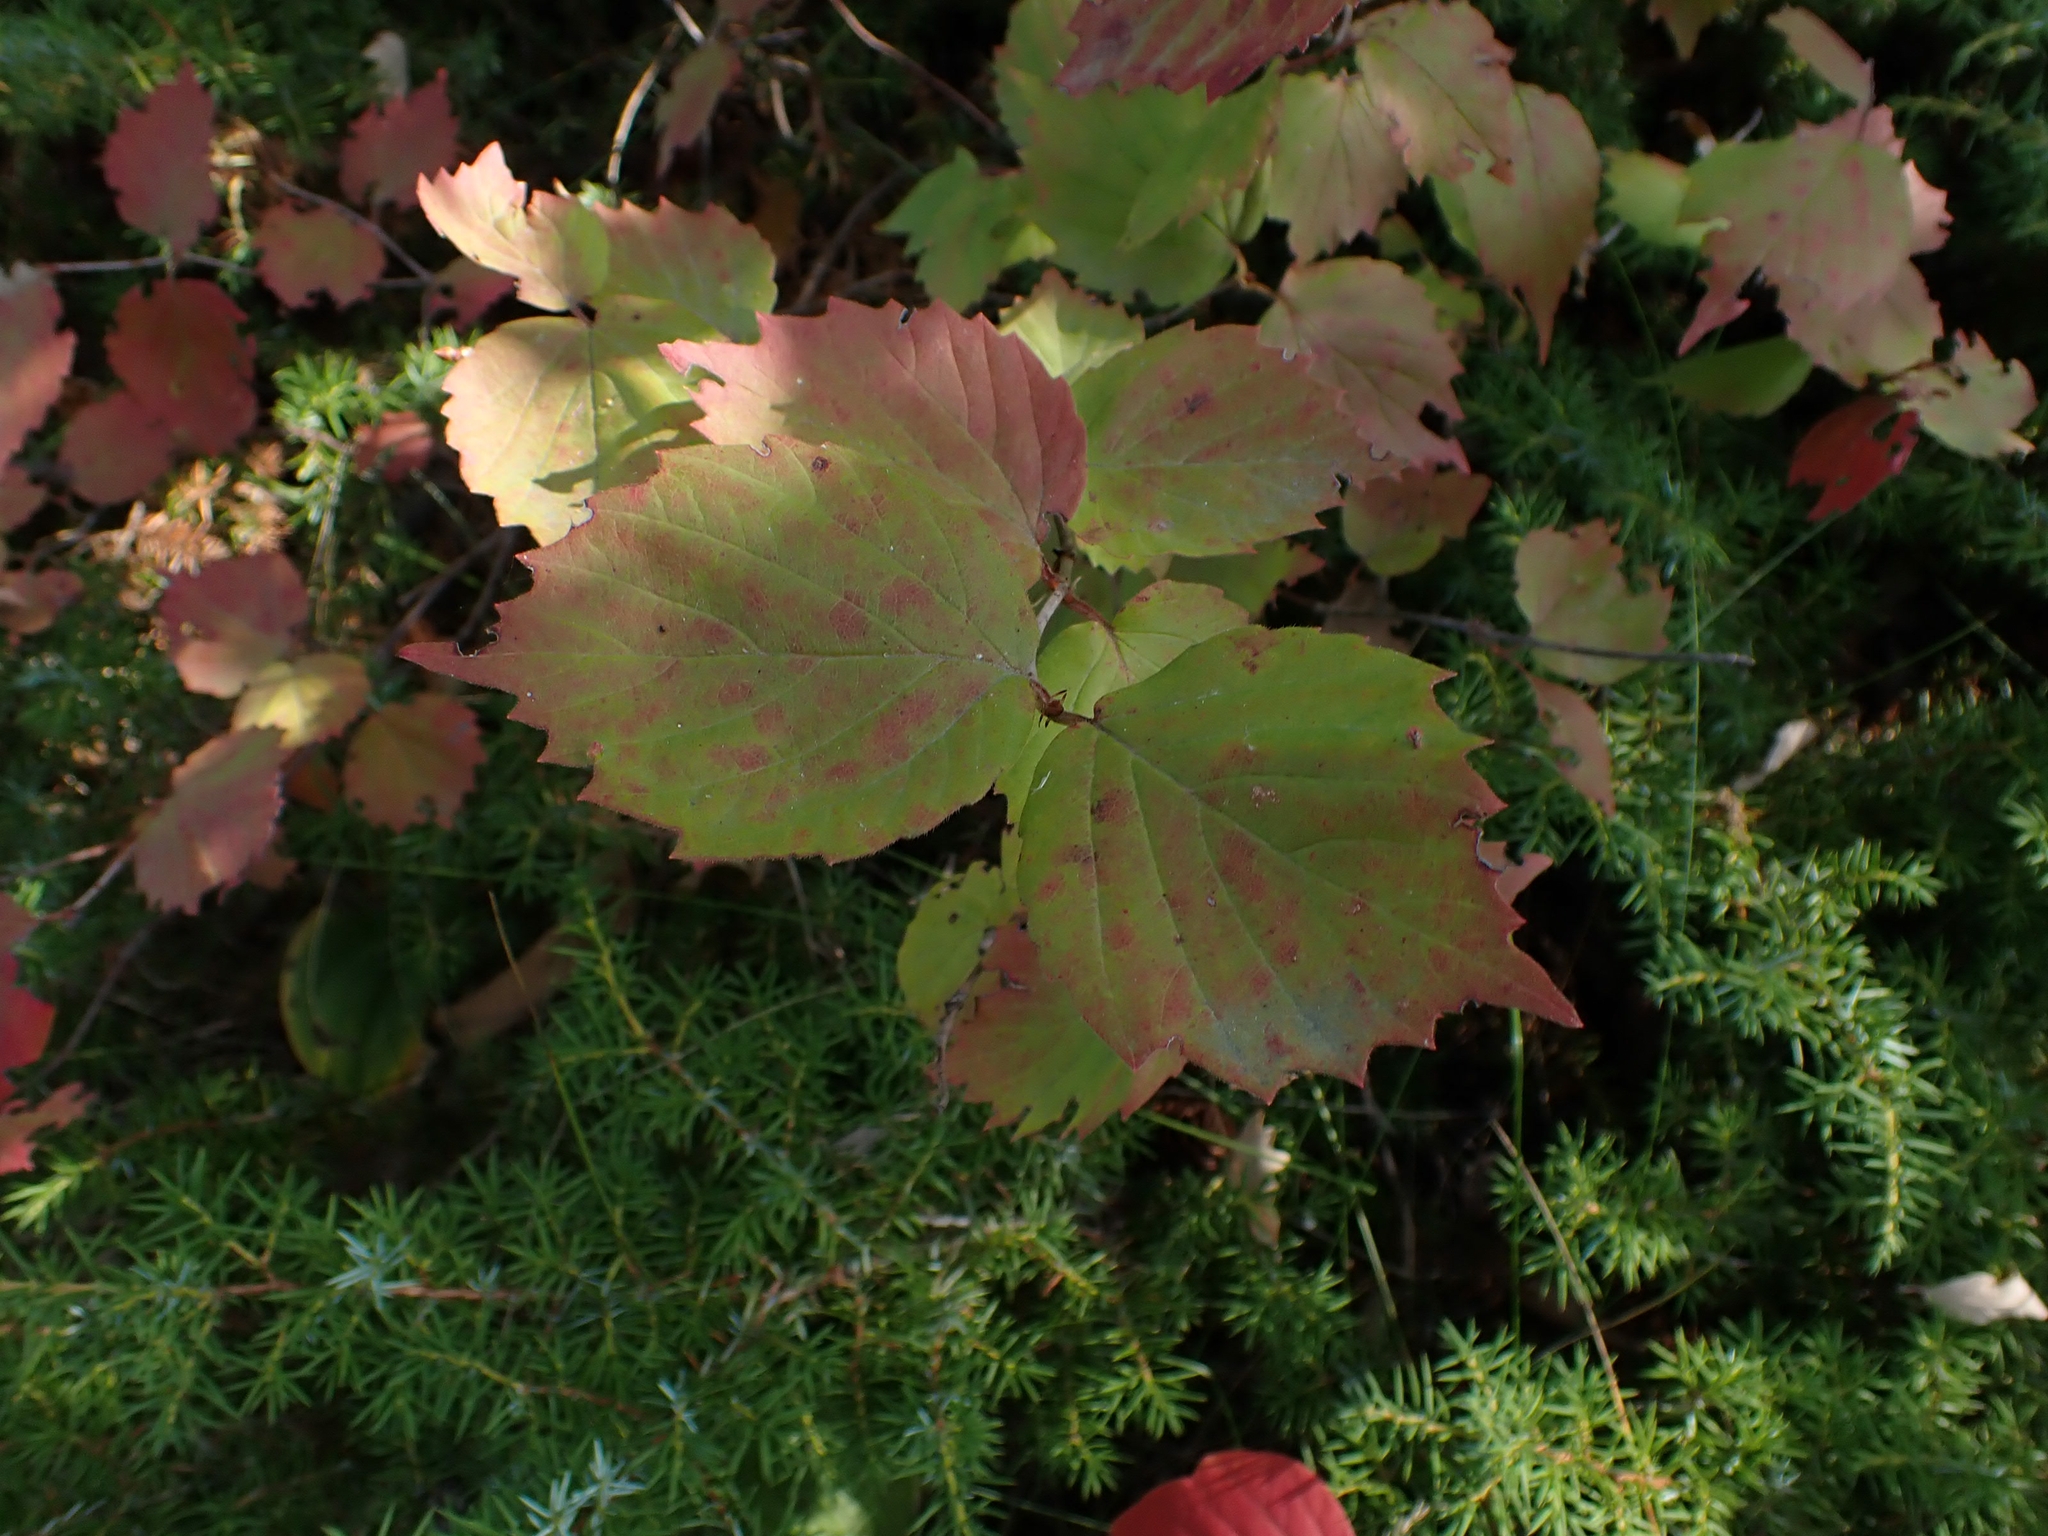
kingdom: Plantae
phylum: Tracheophyta
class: Magnoliopsida
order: Dipsacales
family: Viburnaceae
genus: Viburnum
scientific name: Viburnum rafinesqueanum
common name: Downy arrow-wood
